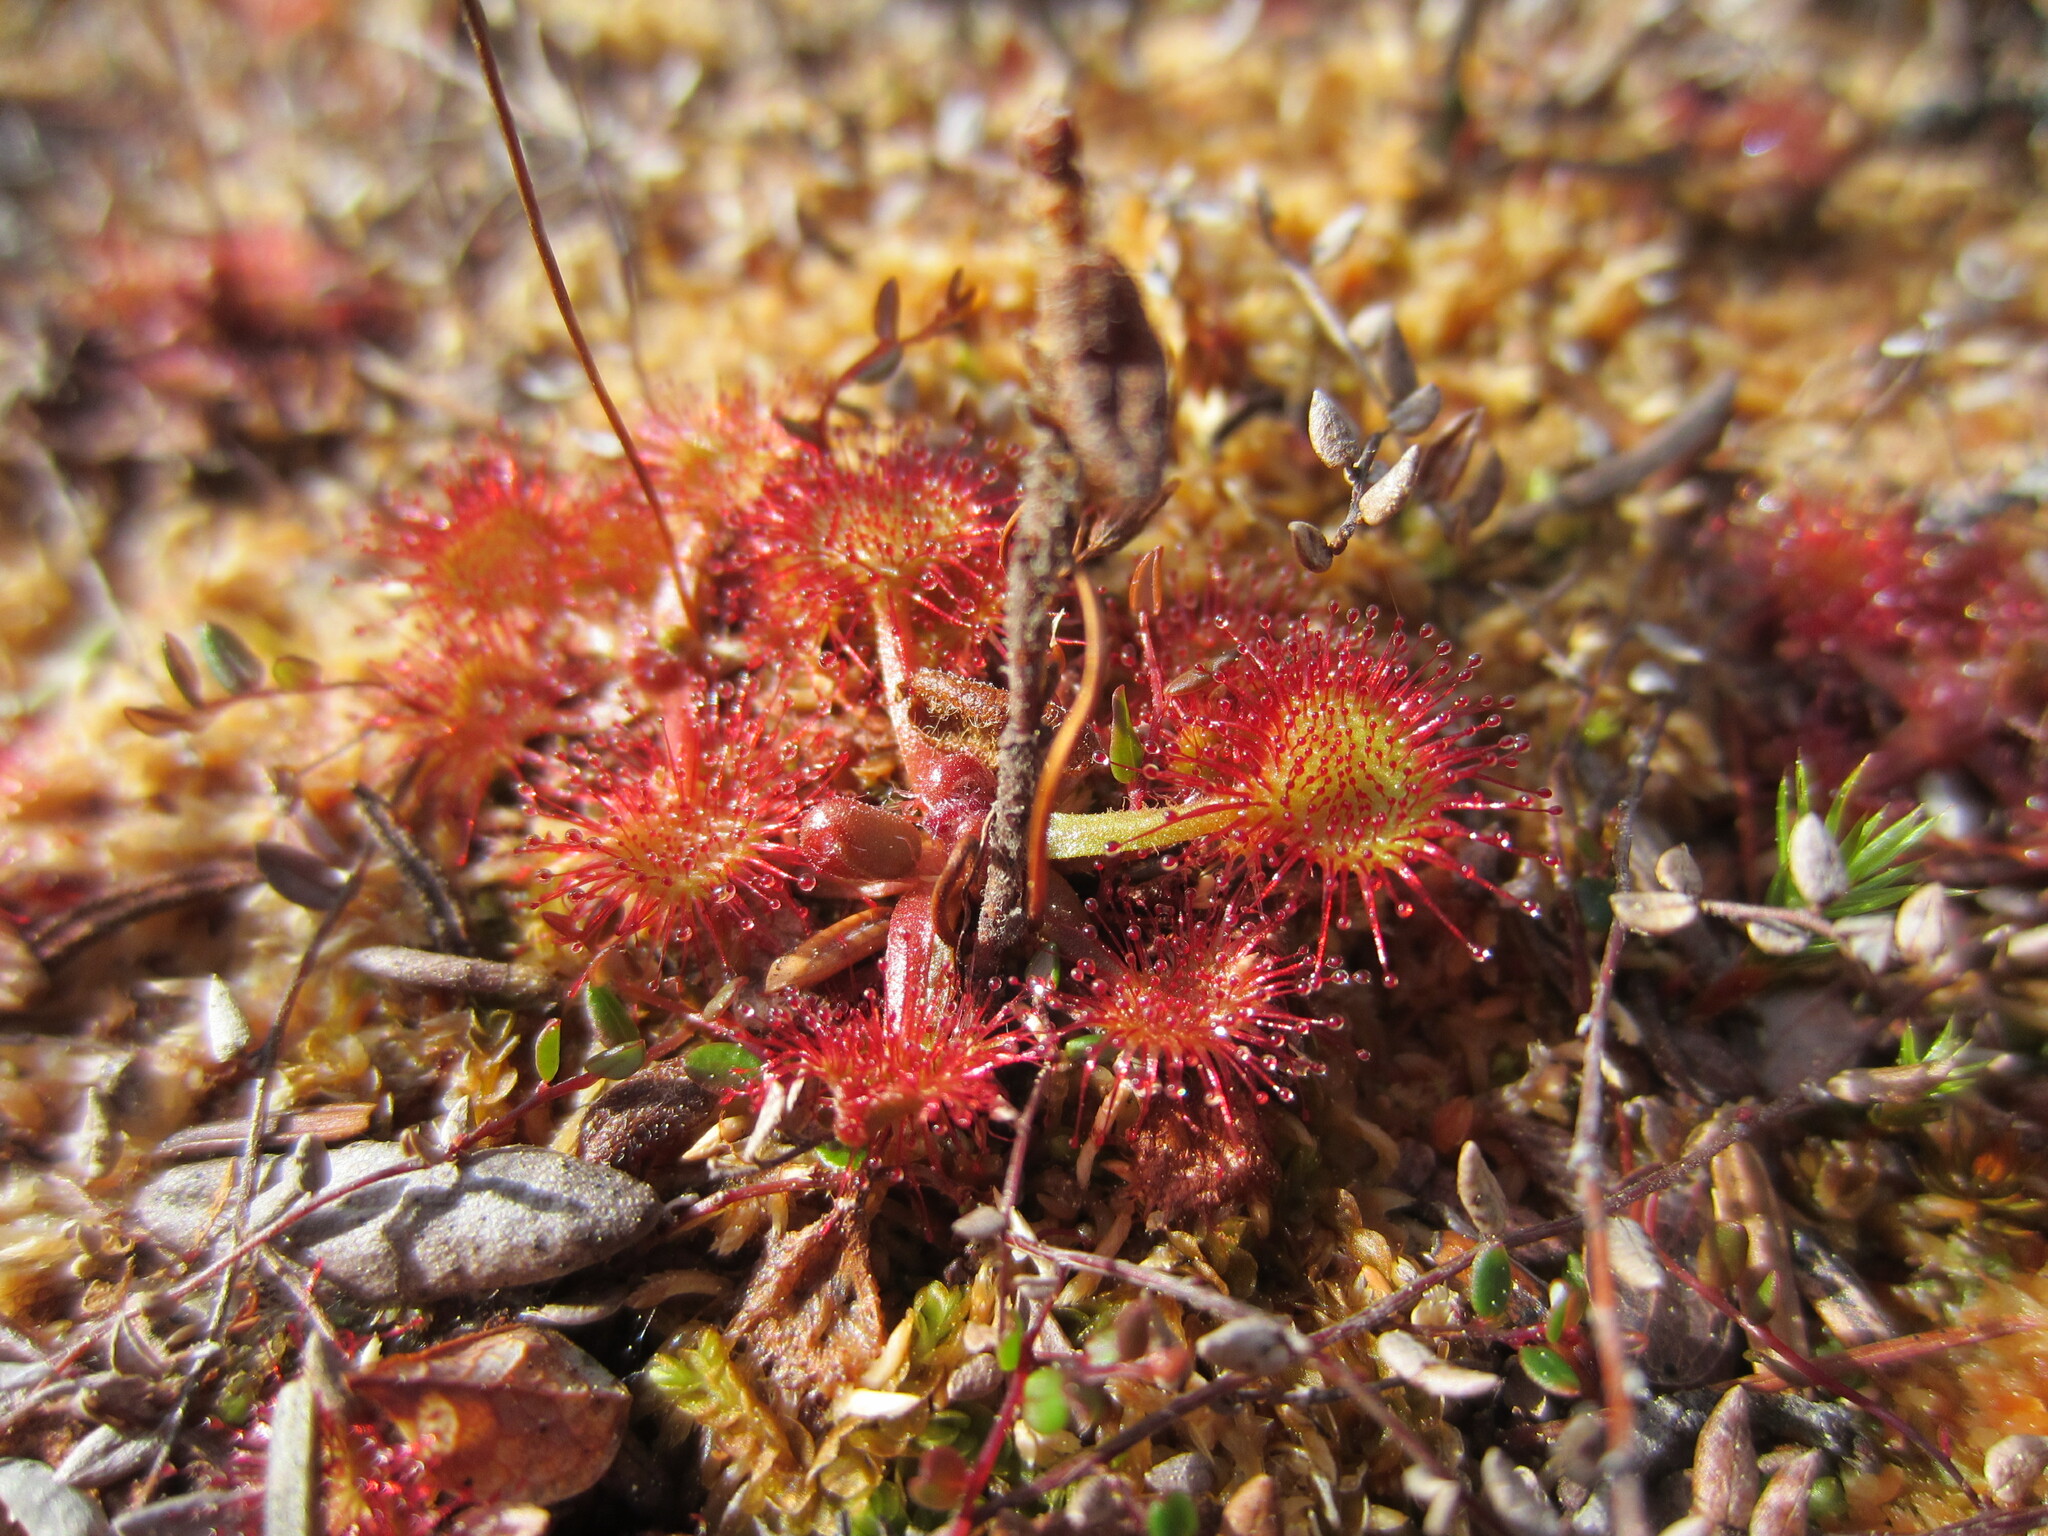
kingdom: Plantae
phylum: Tracheophyta
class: Magnoliopsida
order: Caryophyllales
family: Droseraceae
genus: Drosera
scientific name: Drosera rotundifolia
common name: Round-leaved sundew
